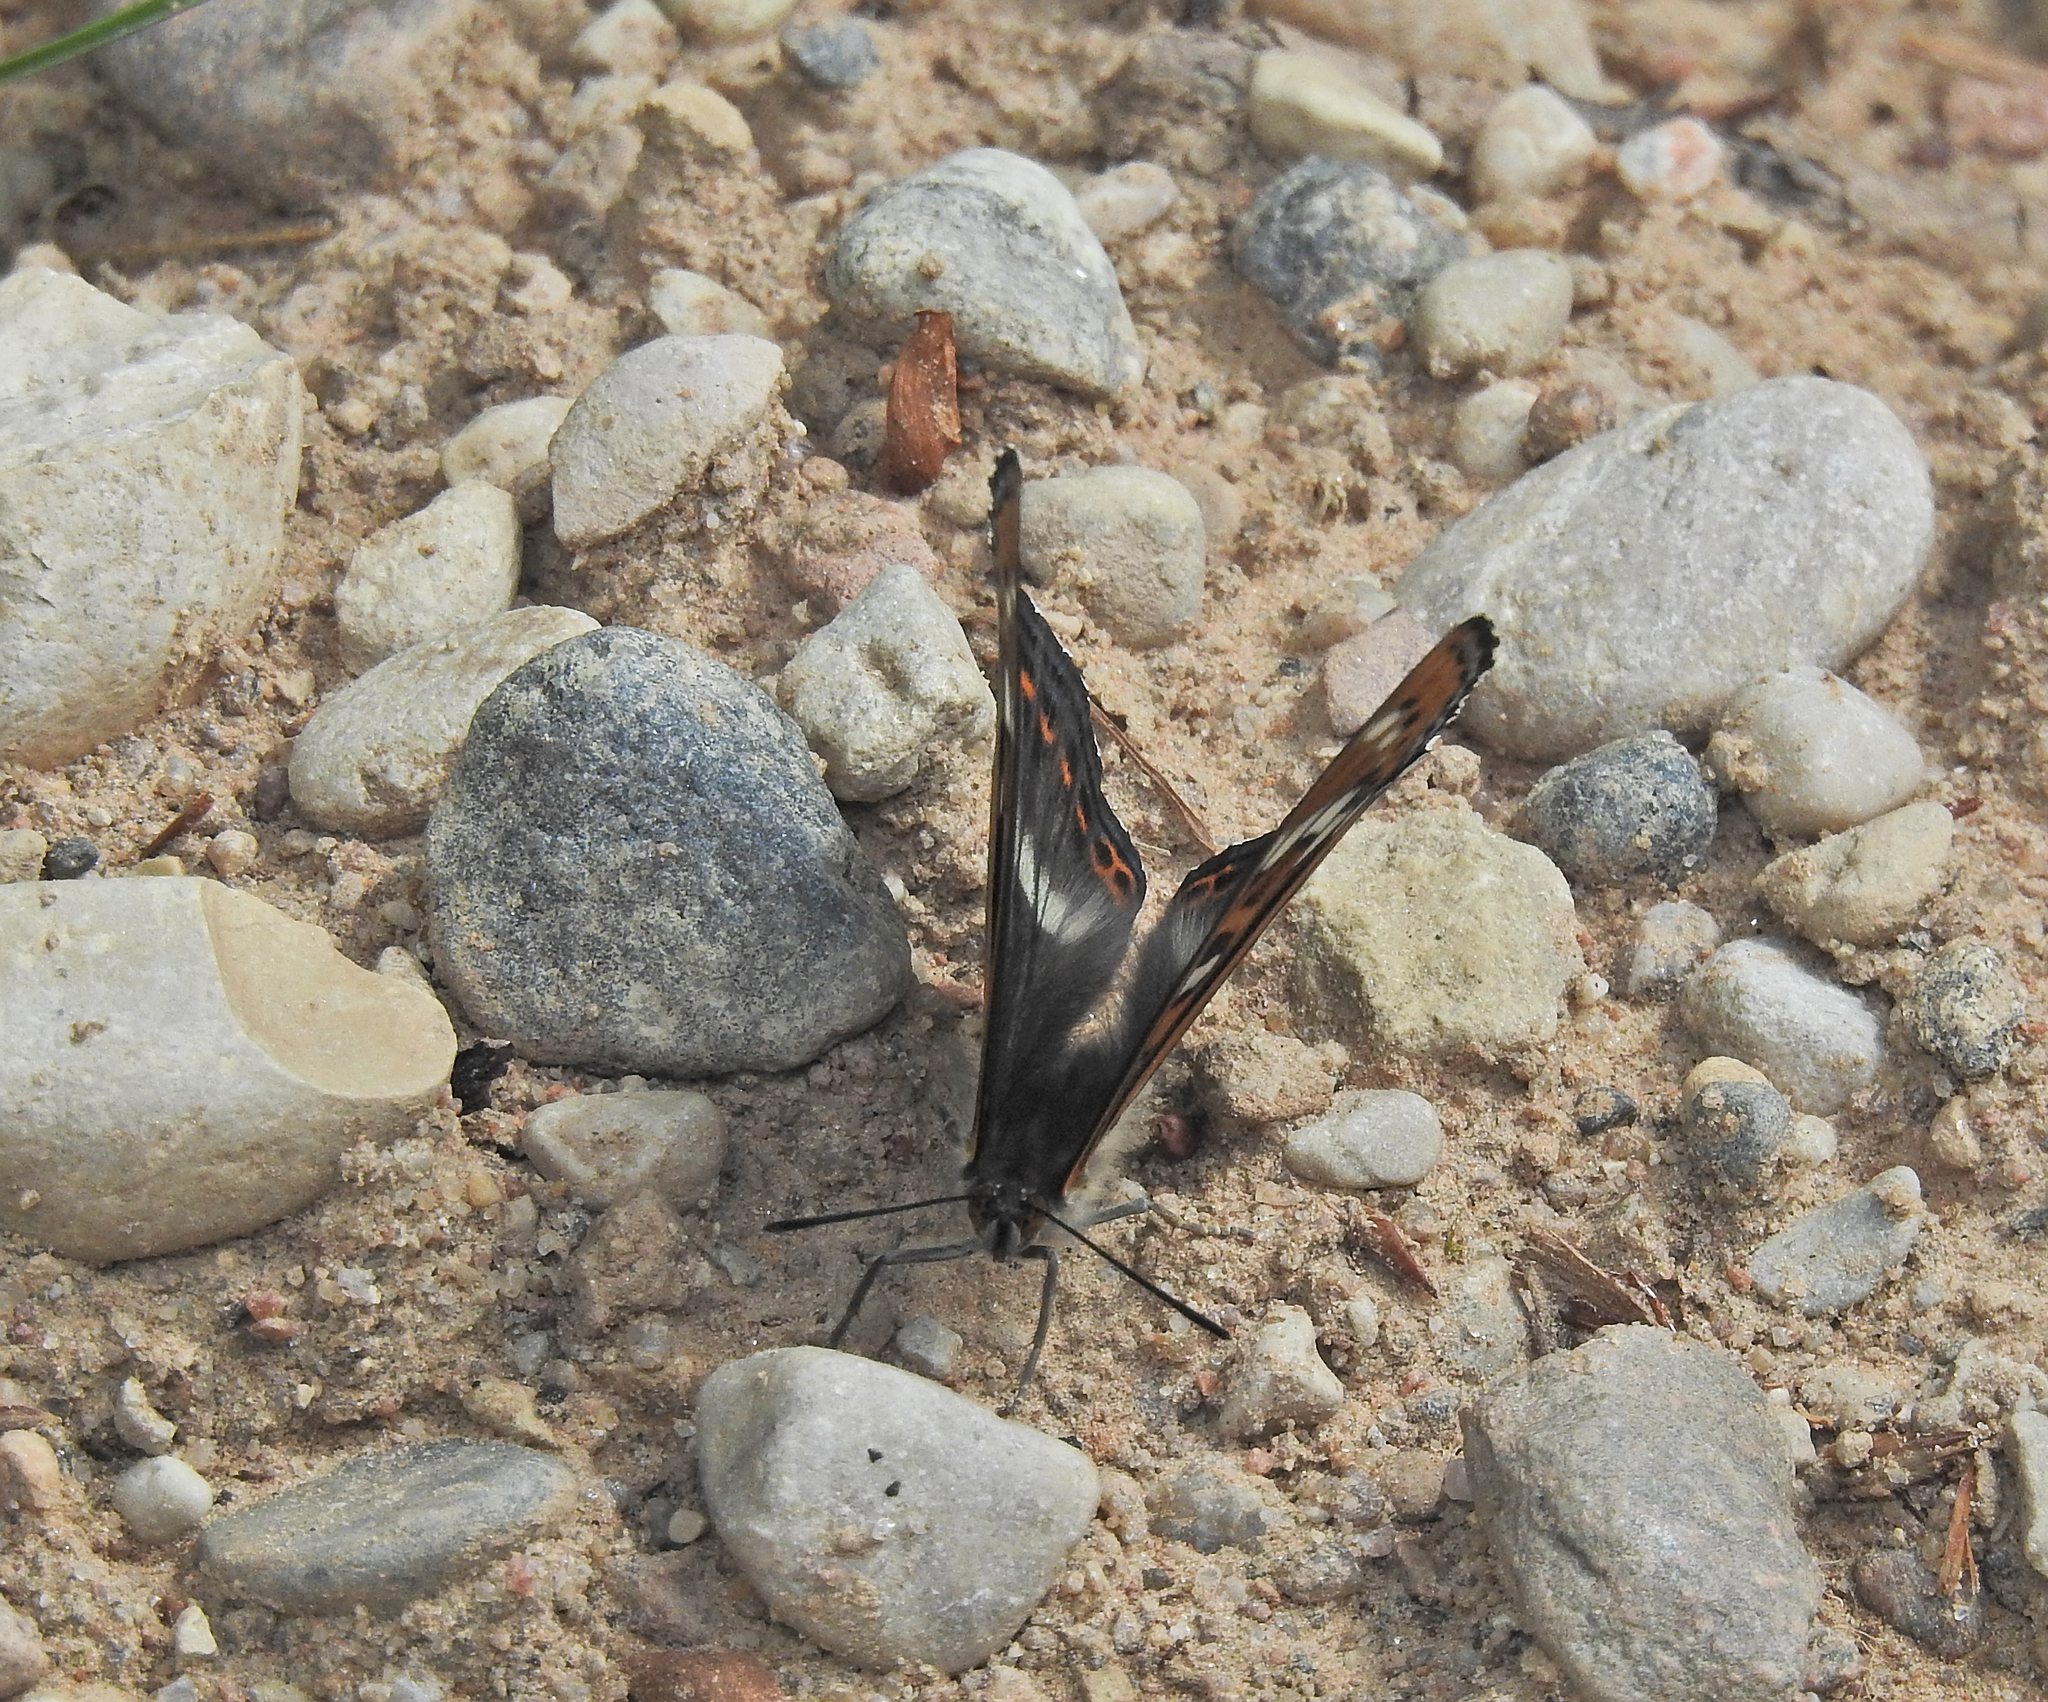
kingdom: Animalia
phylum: Arthropoda
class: Insecta
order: Lepidoptera
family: Nymphalidae
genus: Limenitis
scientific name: Limenitis populi
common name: Poplar admiral
